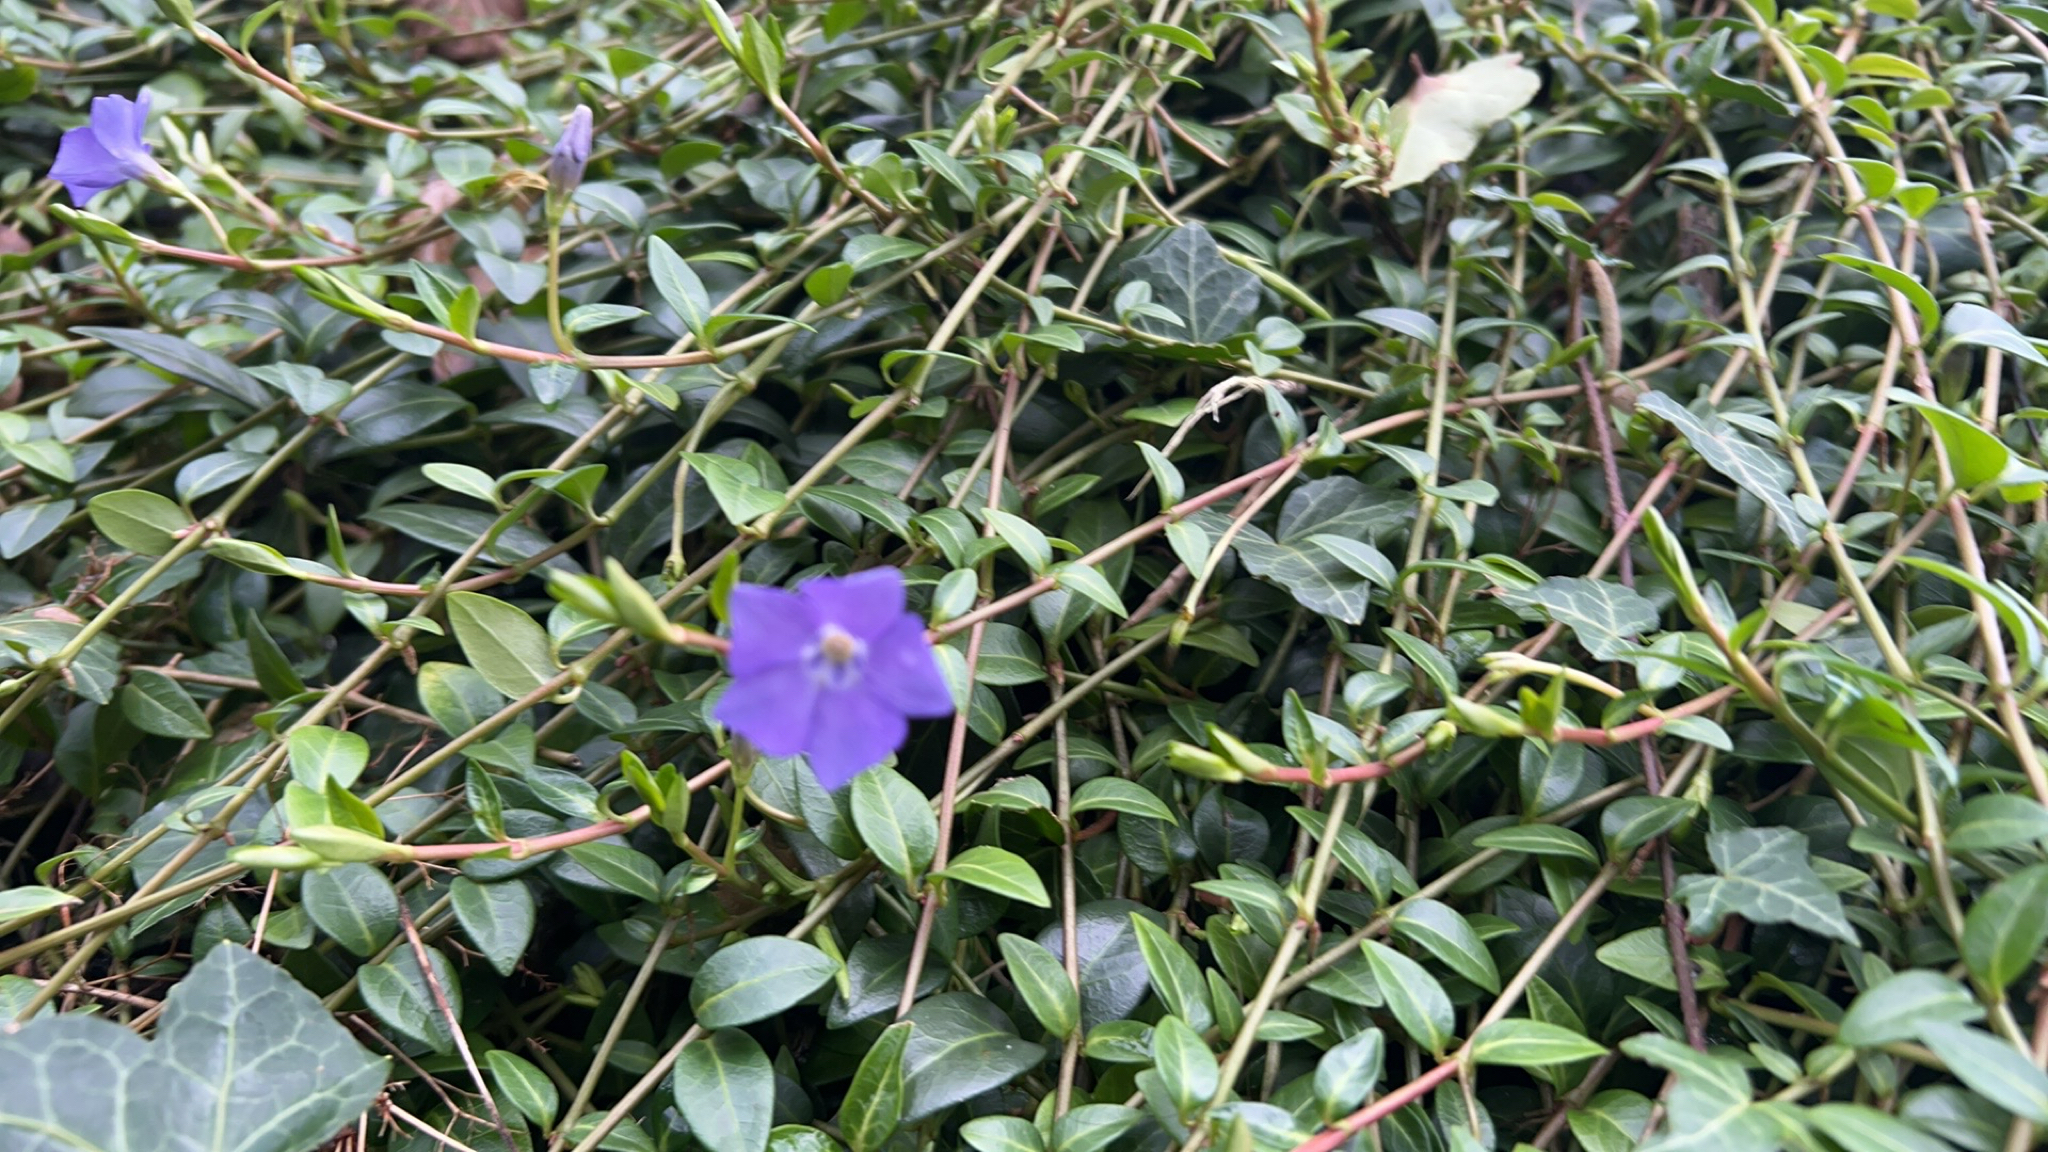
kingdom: Plantae
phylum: Tracheophyta
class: Magnoliopsida
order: Gentianales
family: Apocynaceae
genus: Vinca
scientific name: Vinca minor
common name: Lesser periwinkle
